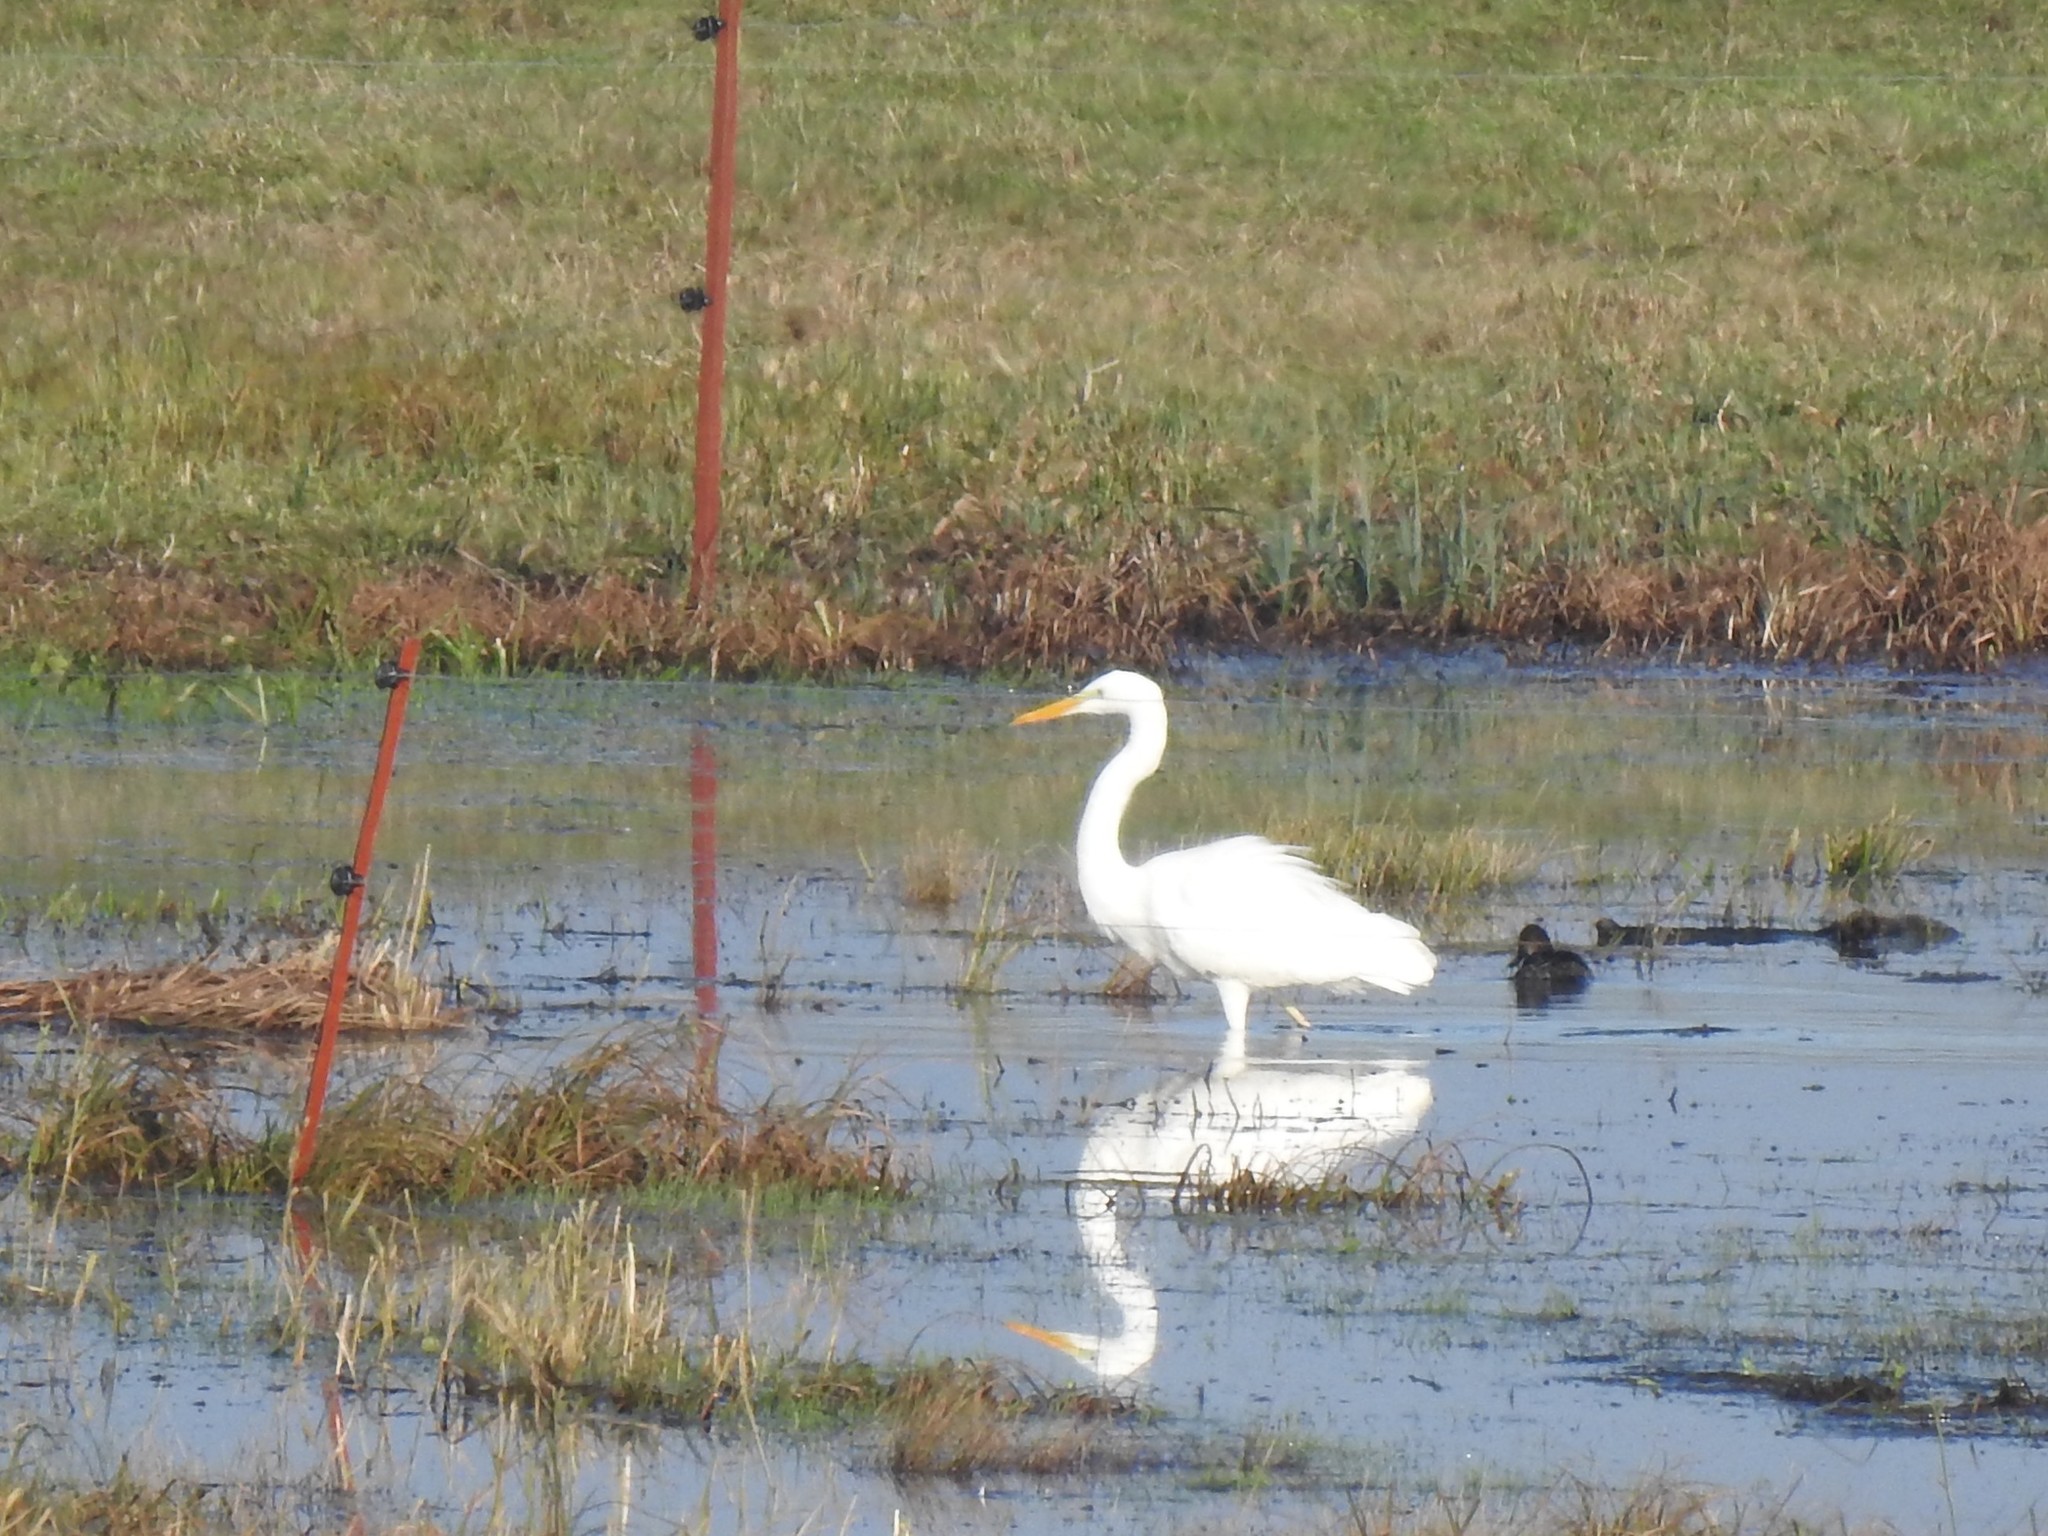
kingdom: Animalia
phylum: Chordata
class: Aves
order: Pelecaniformes
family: Ardeidae
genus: Ardea
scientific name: Ardea alba
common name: Great egret
